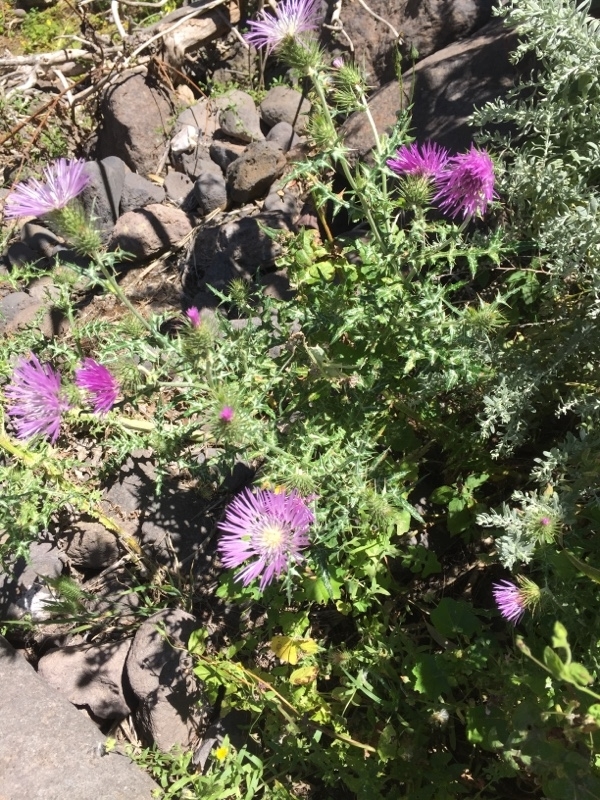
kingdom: Plantae
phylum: Tracheophyta
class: Magnoliopsida
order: Asterales
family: Asteraceae
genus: Galactites
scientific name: Galactites tomentosa
